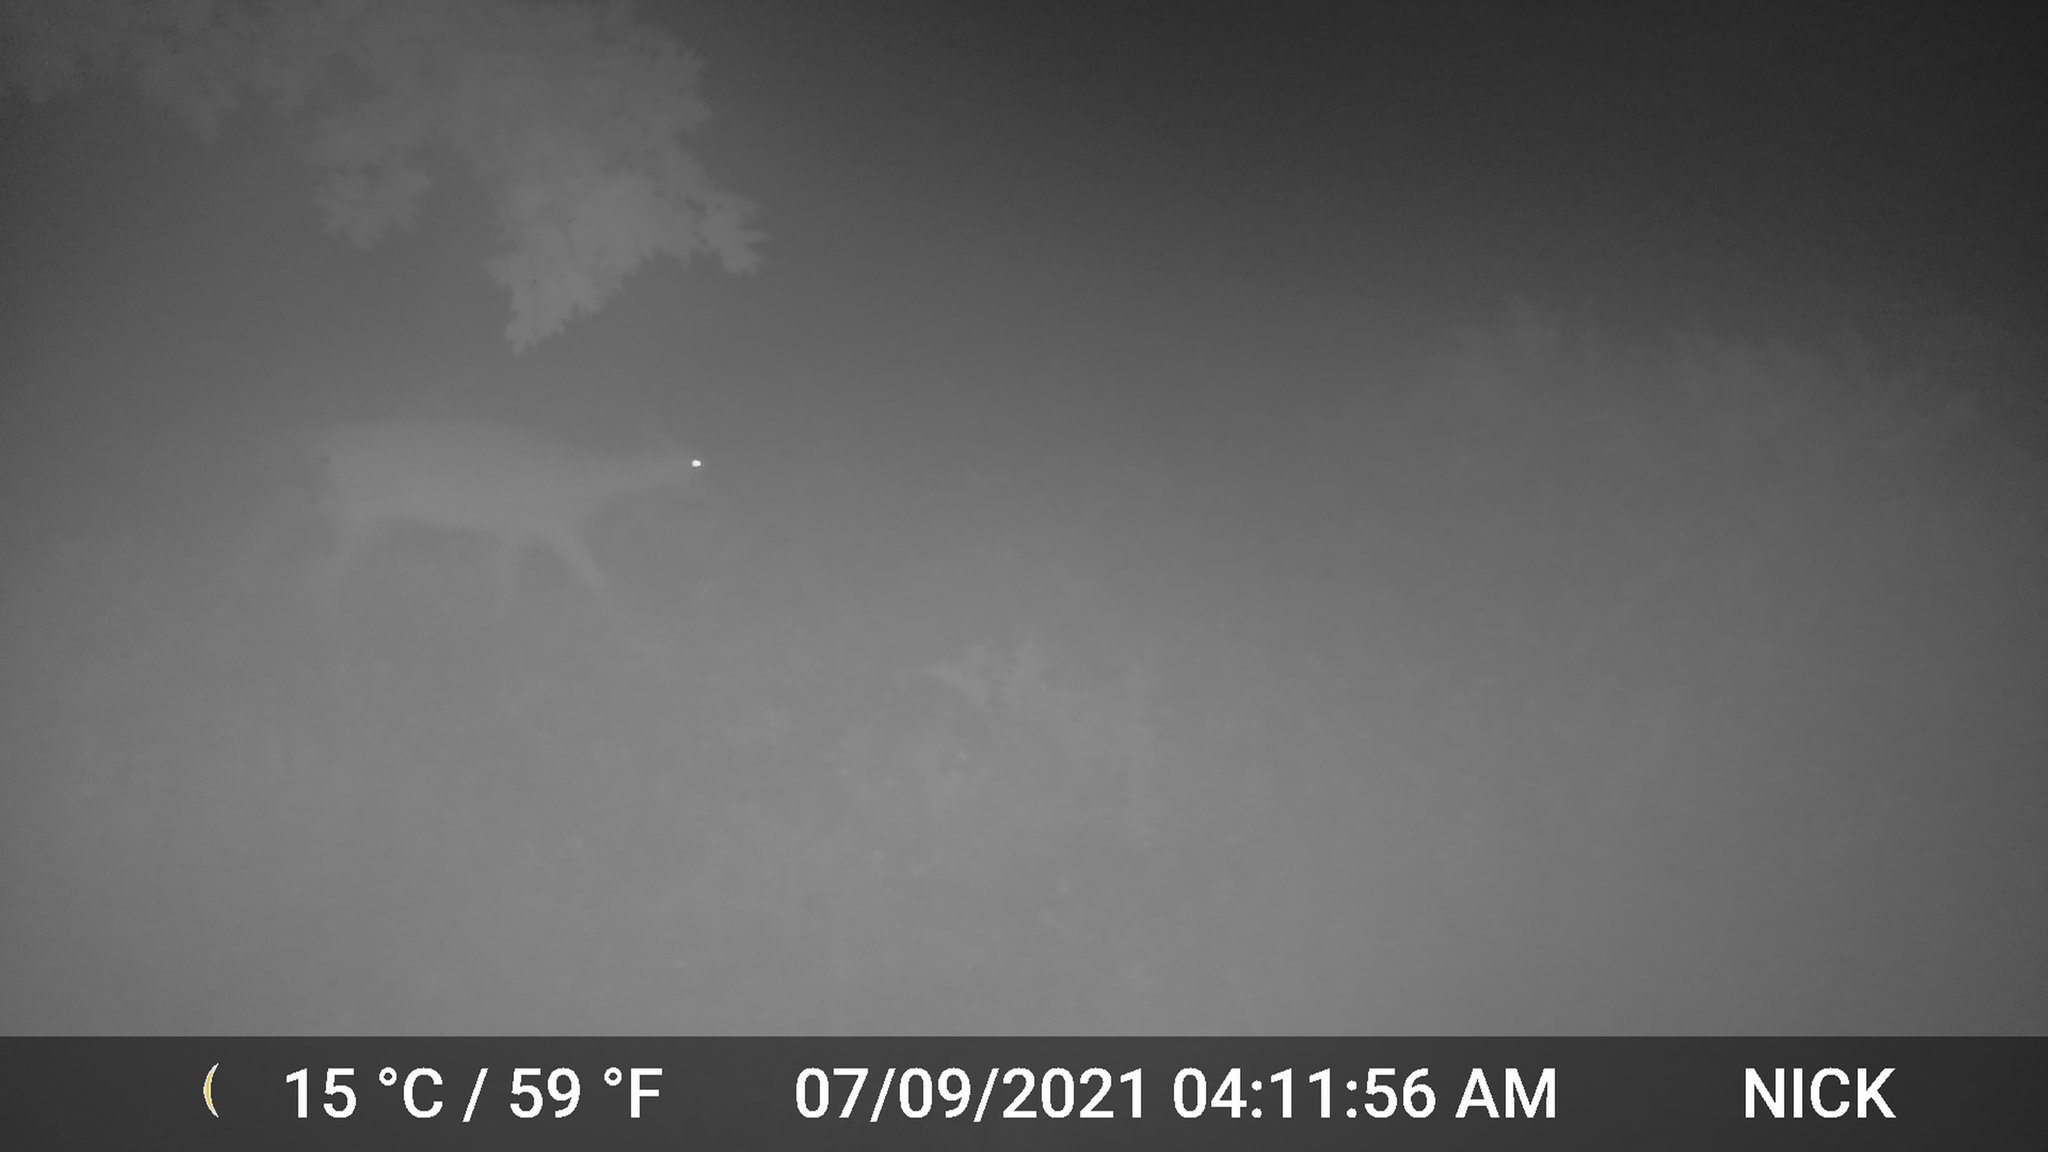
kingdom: Animalia
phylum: Chordata
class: Mammalia
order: Artiodactyla
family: Cervidae
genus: Odocoileus
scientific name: Odocoileus virginianus
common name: White-tailed deer
